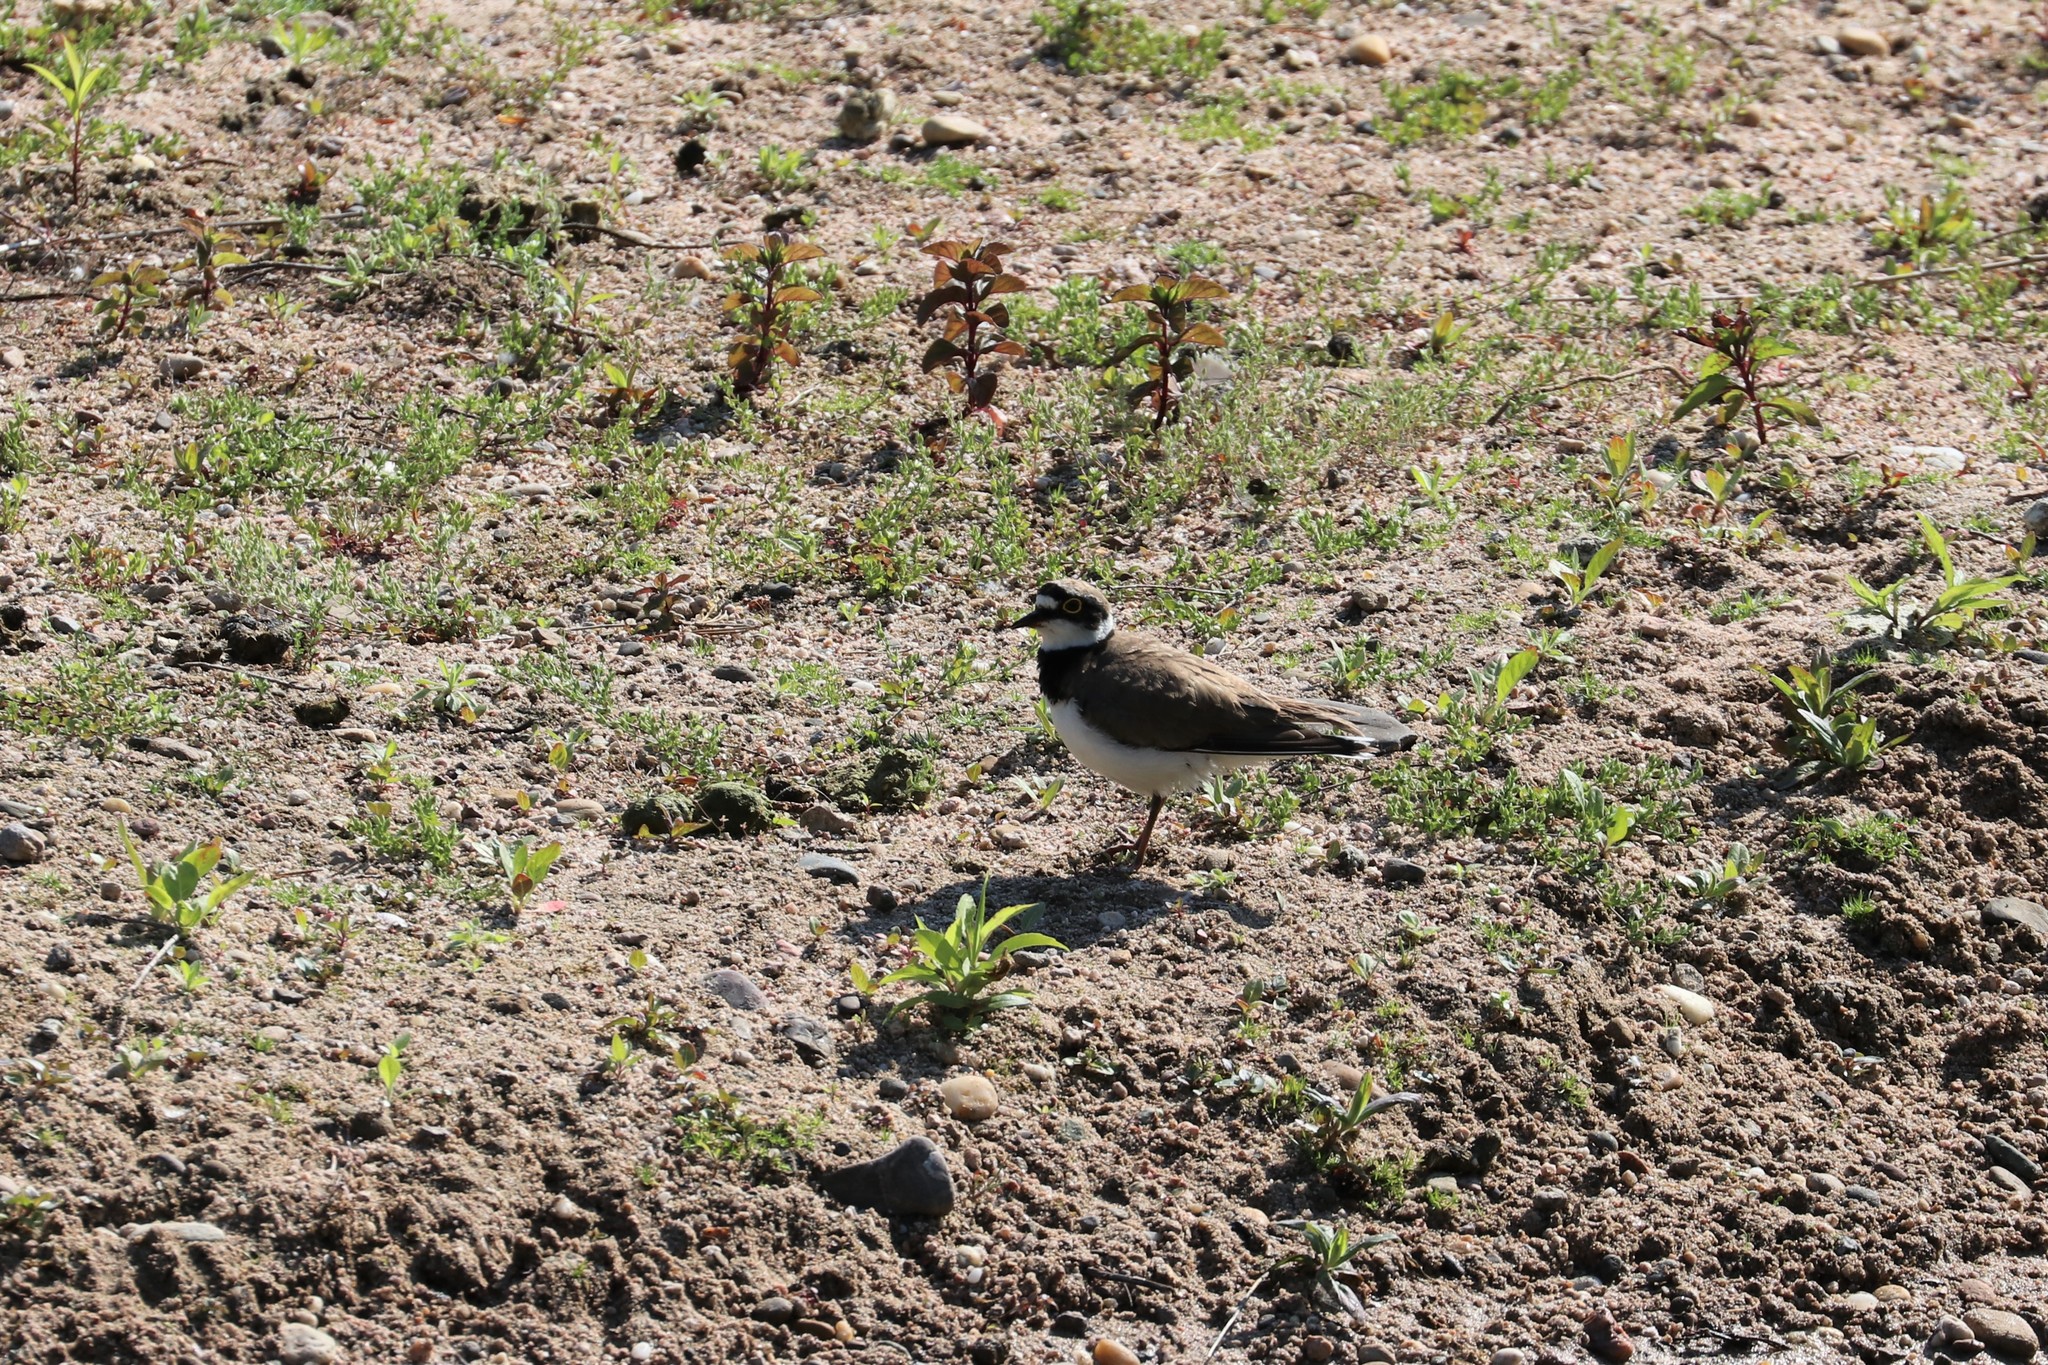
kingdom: Animalia
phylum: Chordata
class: Aves
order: Charadriiformes
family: Charadriidae
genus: Charadrius
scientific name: Charadrius dubius
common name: Little ringed plover
